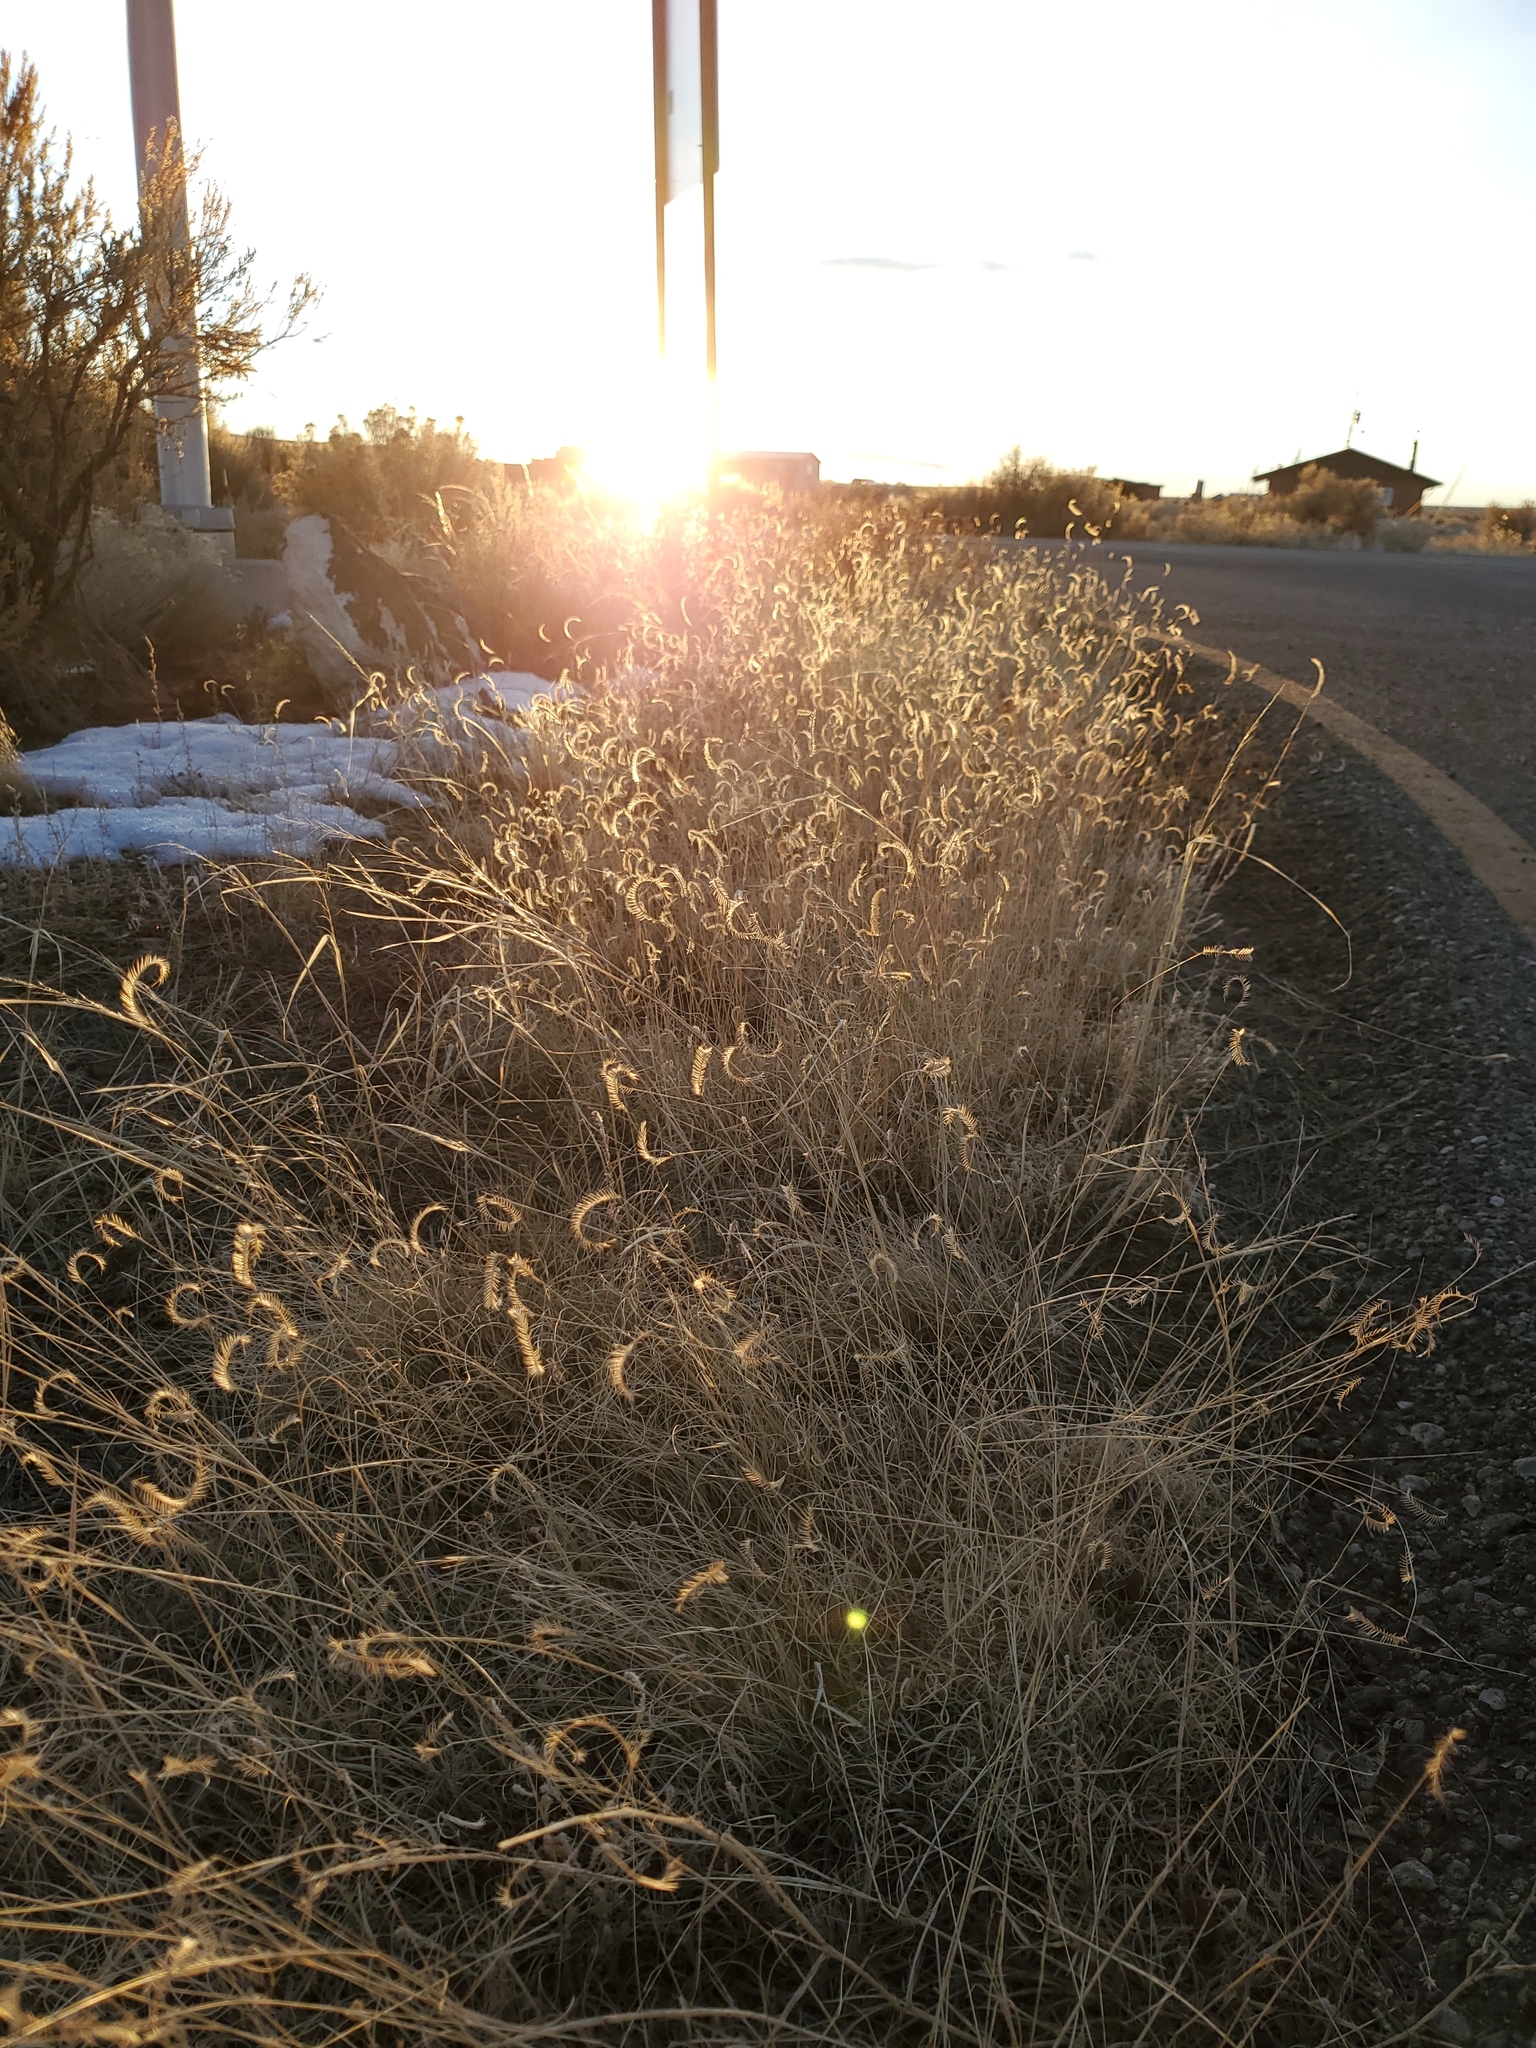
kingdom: Plantae
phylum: Tracheophyta
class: Liliopsida
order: Poales
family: Poaceae
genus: Bouteloua
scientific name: Bouteloua gracilis
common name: Blue grama
